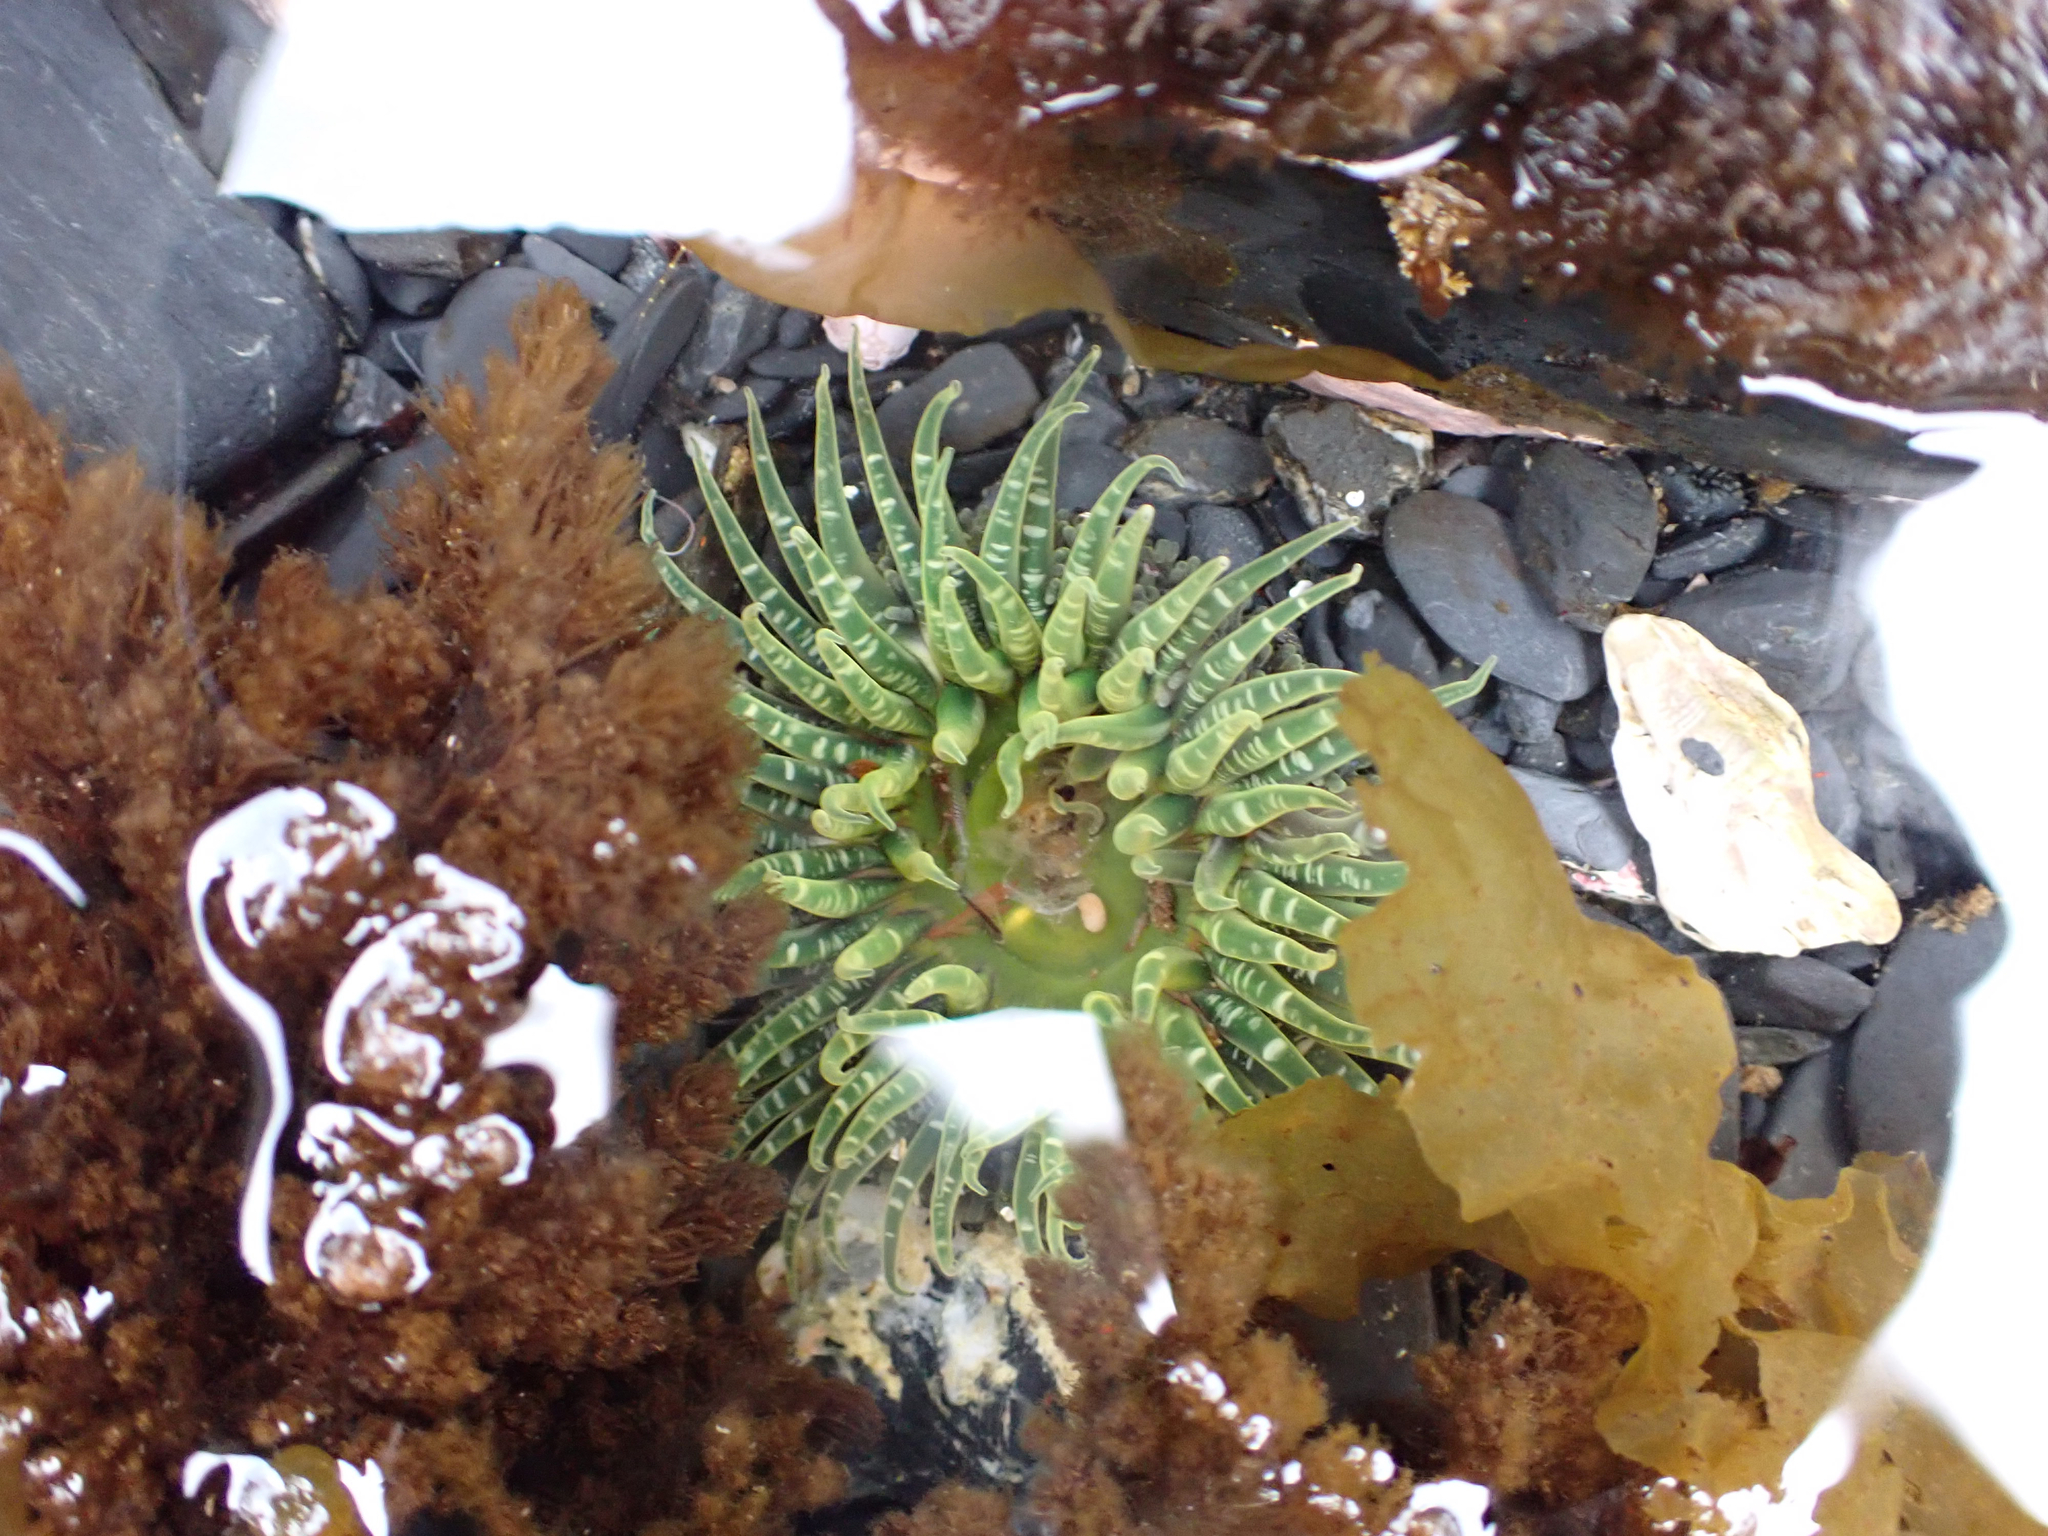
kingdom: Animalia
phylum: Cnidaria
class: Anthozoa
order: Actiniaria
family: Actiniidae
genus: Anthopleura
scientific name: Anthopleura artemisia
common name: Buried sea anemone
